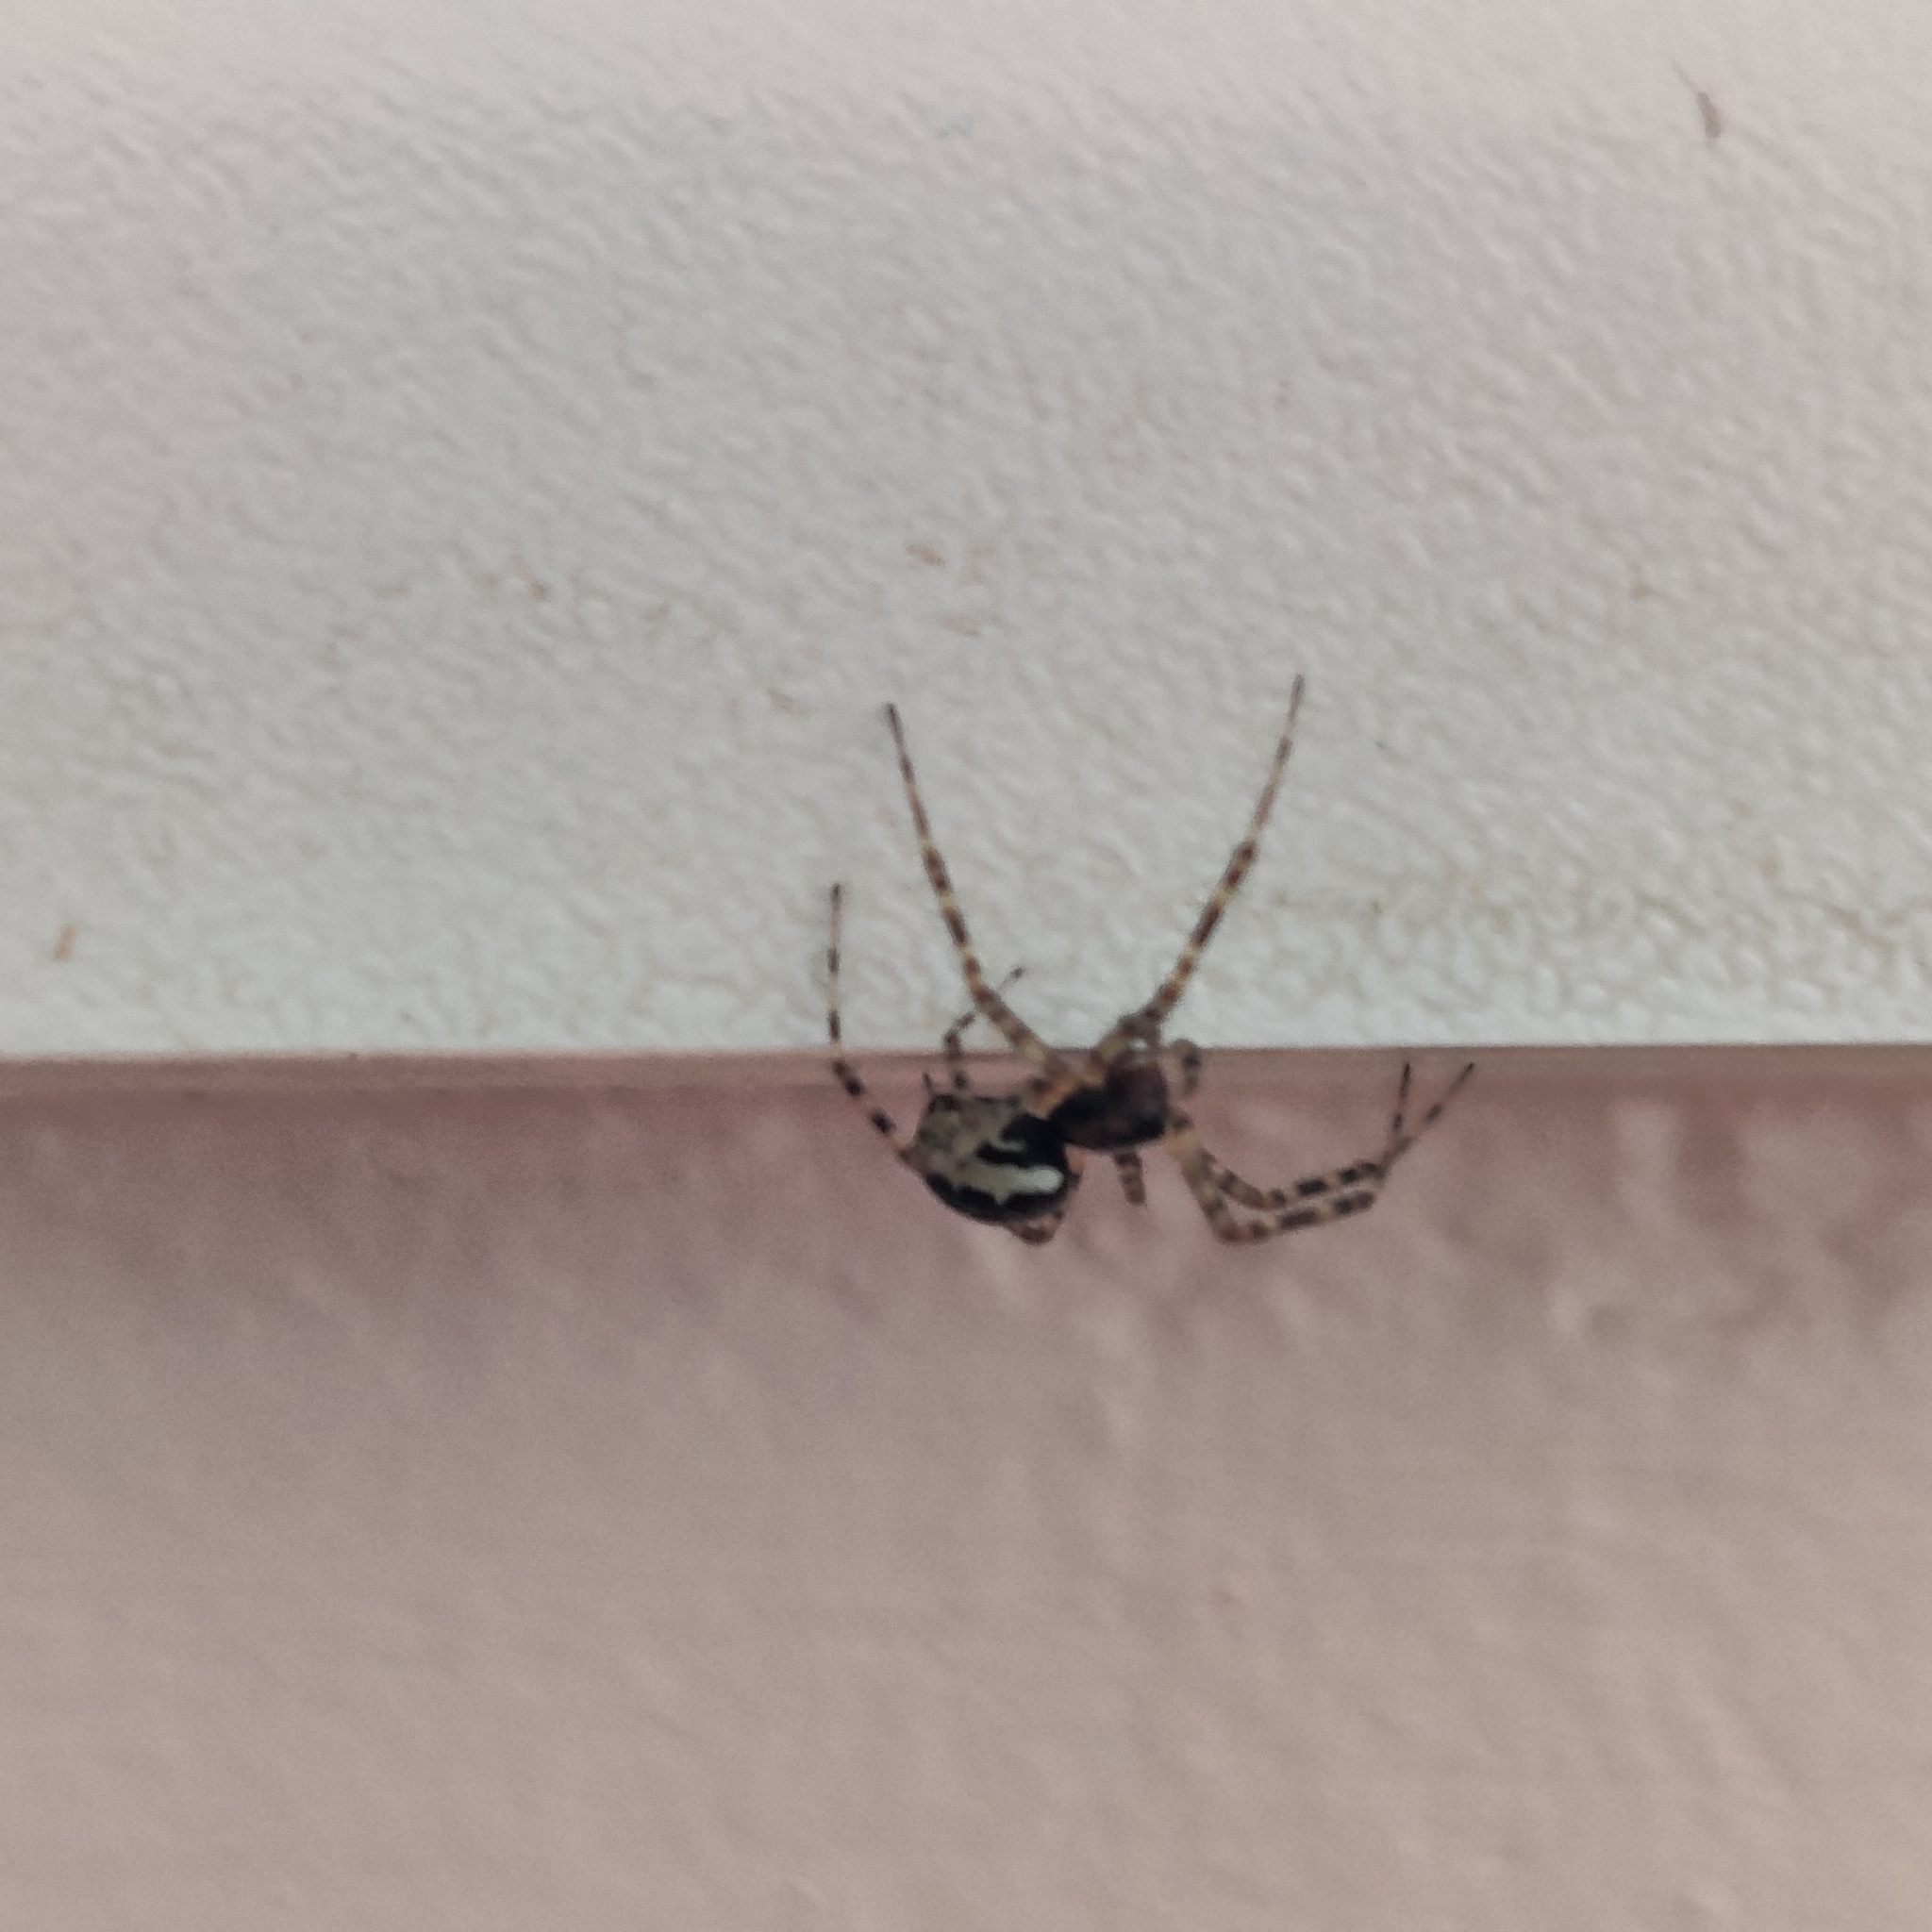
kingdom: Animalia
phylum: Arthropoda
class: Arachnida
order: Araneae
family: Linyphiidae
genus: Neriene
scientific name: Neriene montana
